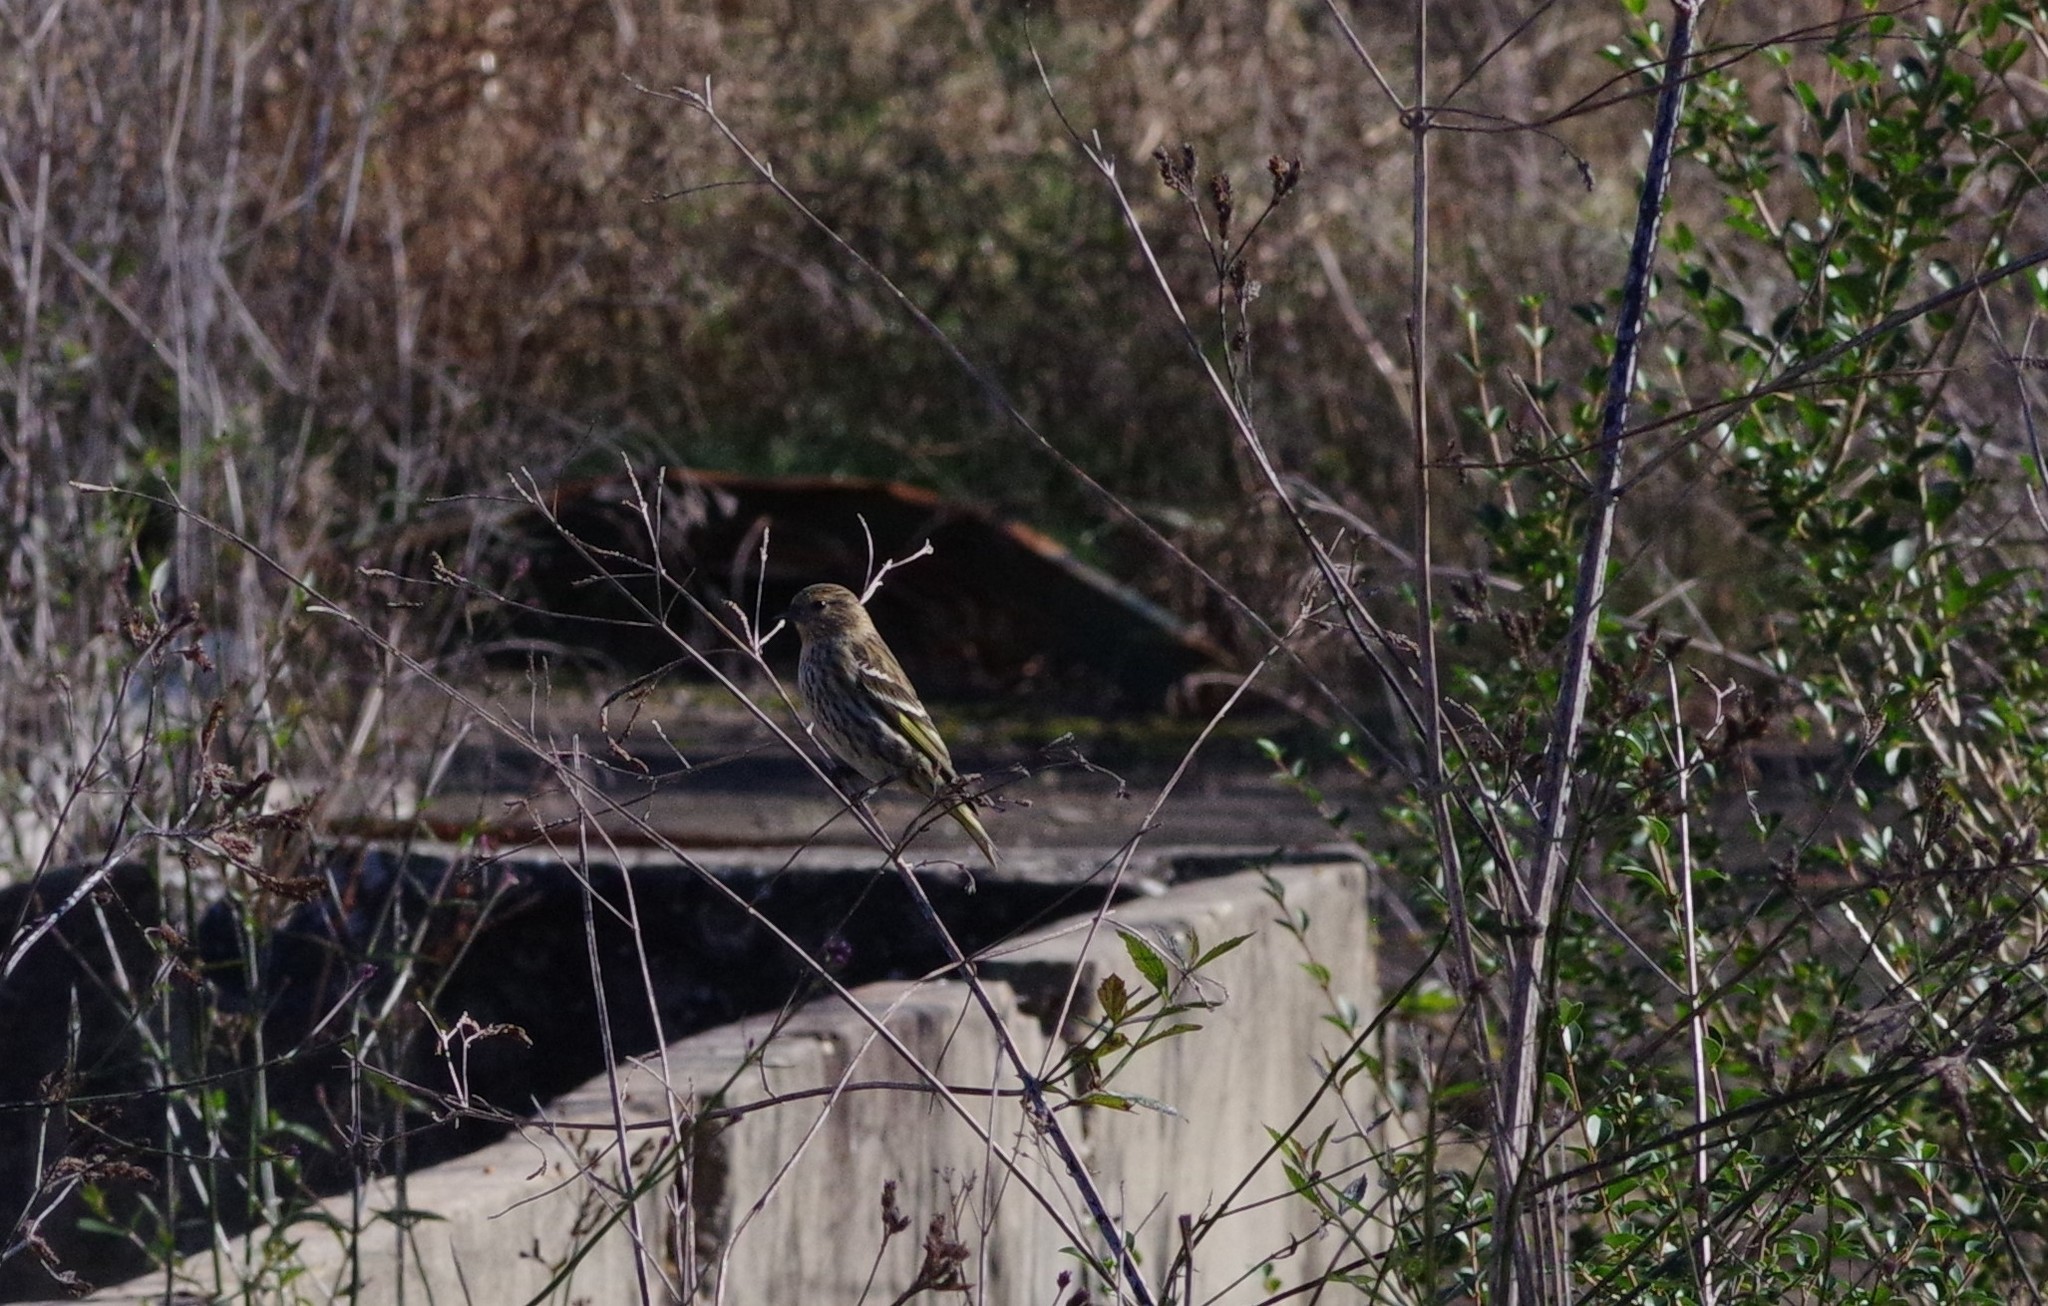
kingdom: Animalia
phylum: Chordata
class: Aves
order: Passeriformes
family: Fringillidae
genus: Spinus
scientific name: Spinus pinus
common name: Pine siskin
